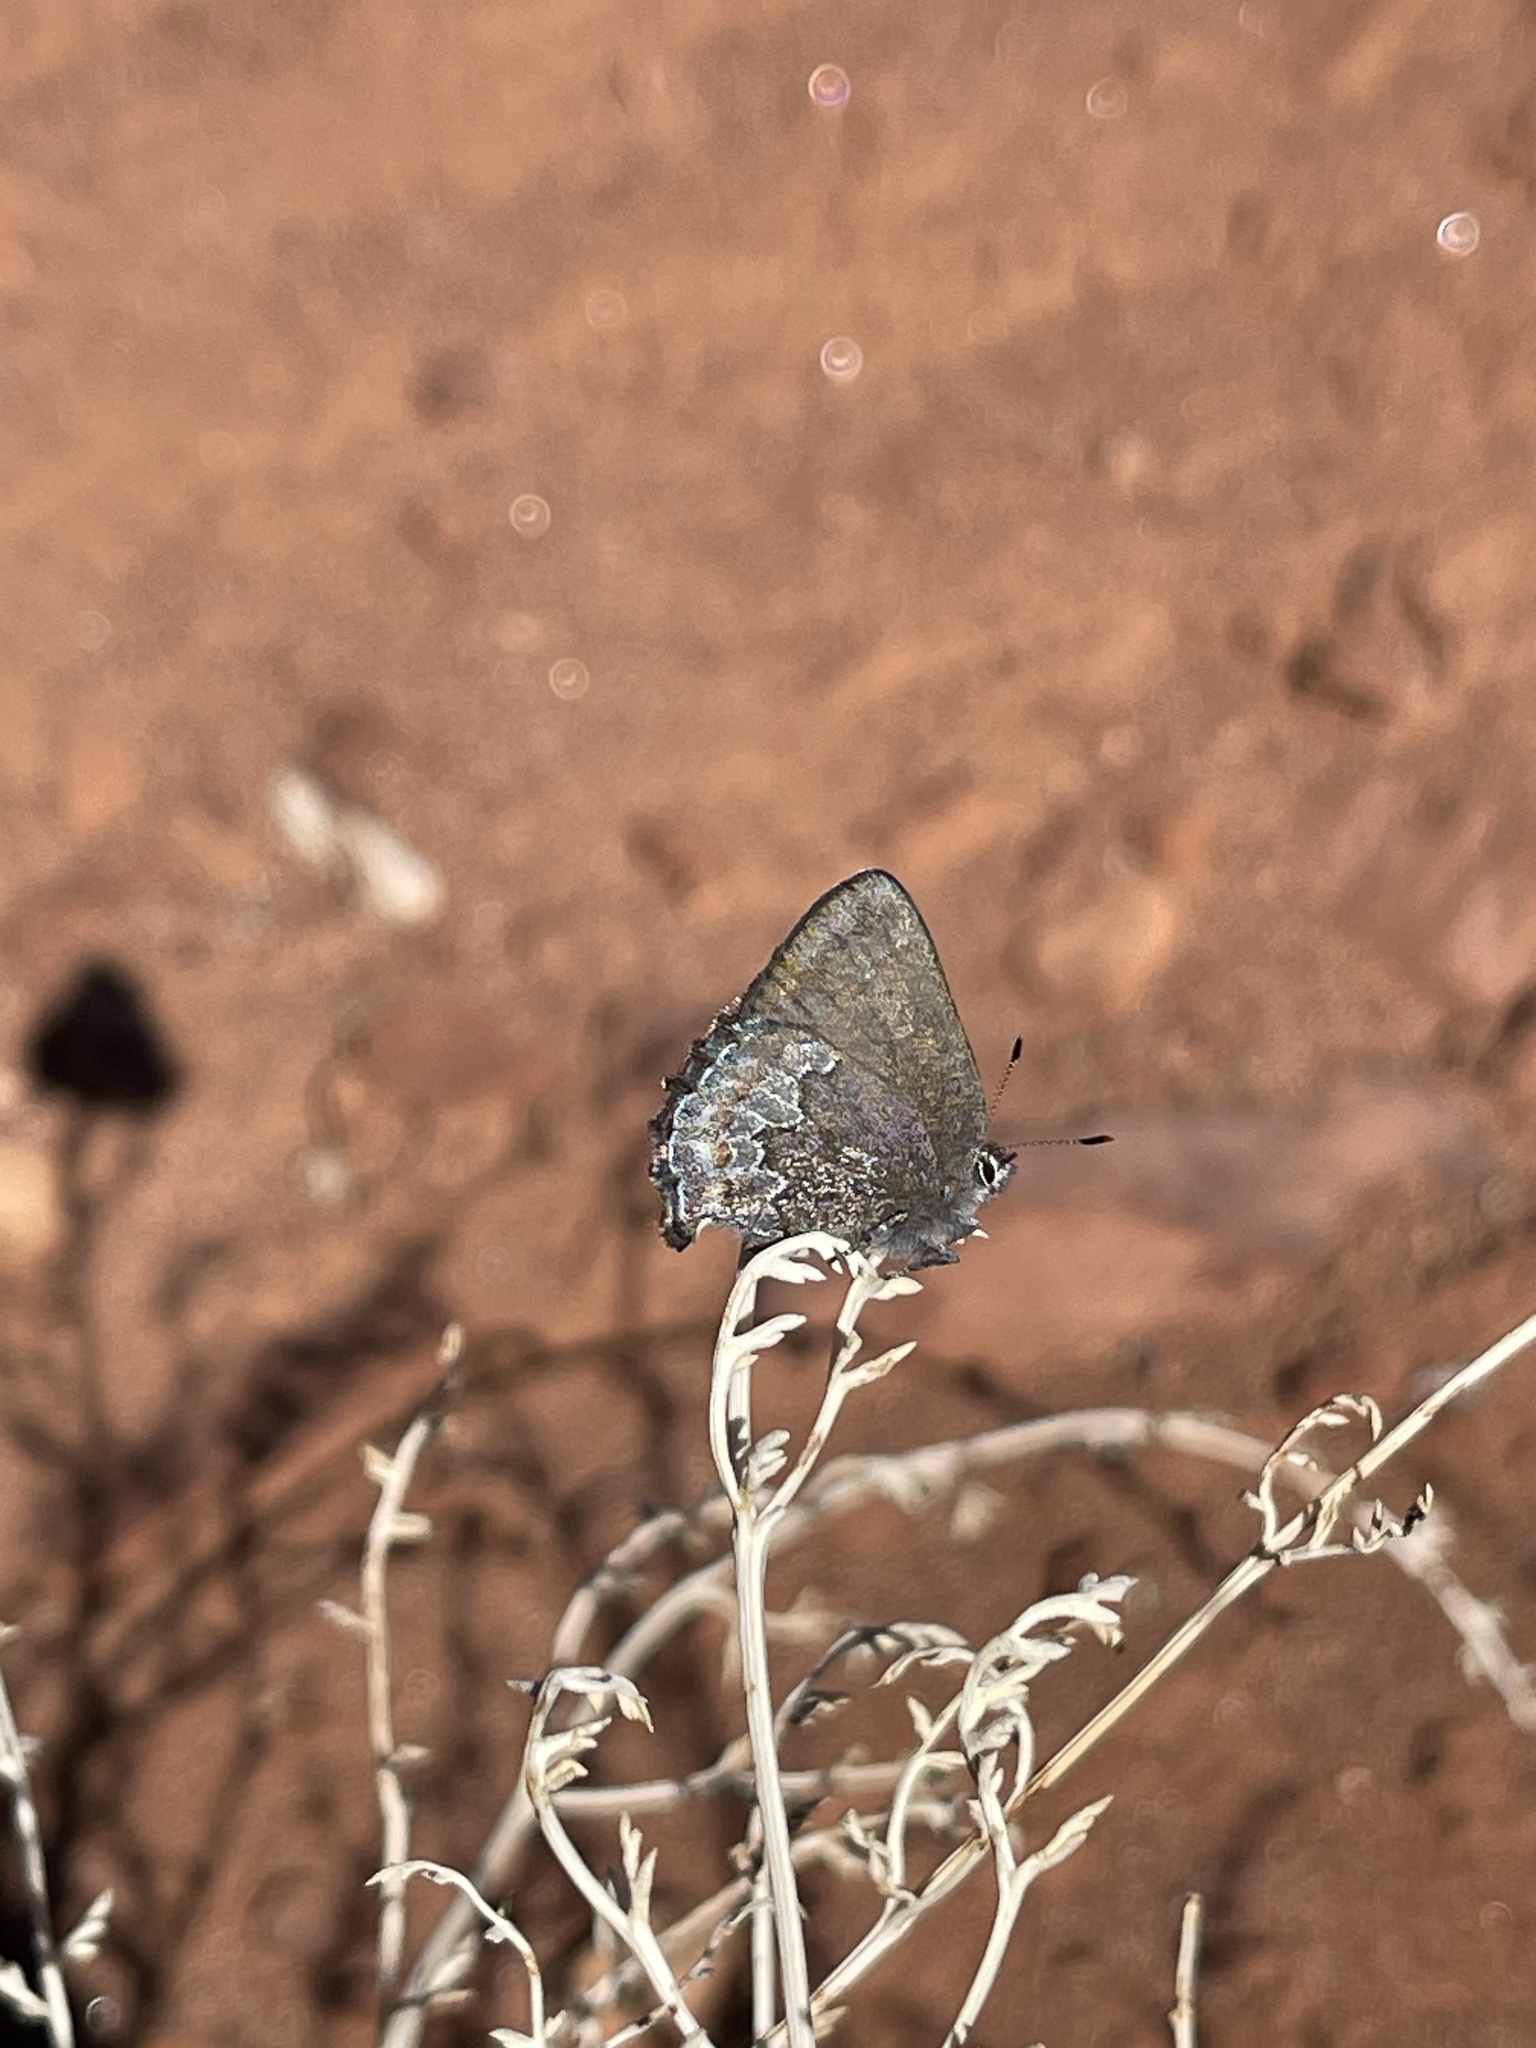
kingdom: Animalia
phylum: Arthropoda
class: Insecta
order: Lepidoptera
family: Lycaenidae
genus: Callophrys
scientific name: Callophrys fotis
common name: Desert elfin
